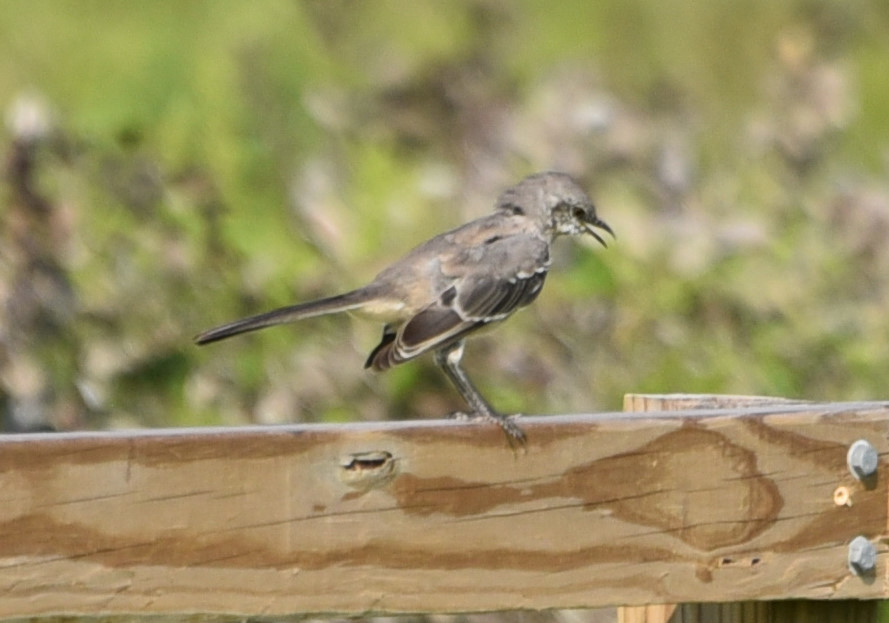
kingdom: Animalia
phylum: Chordata
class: Aves
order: Passeriformes
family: Mimidae
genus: Mimus
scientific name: Mimus polyglottos
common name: Northern mockingbird
